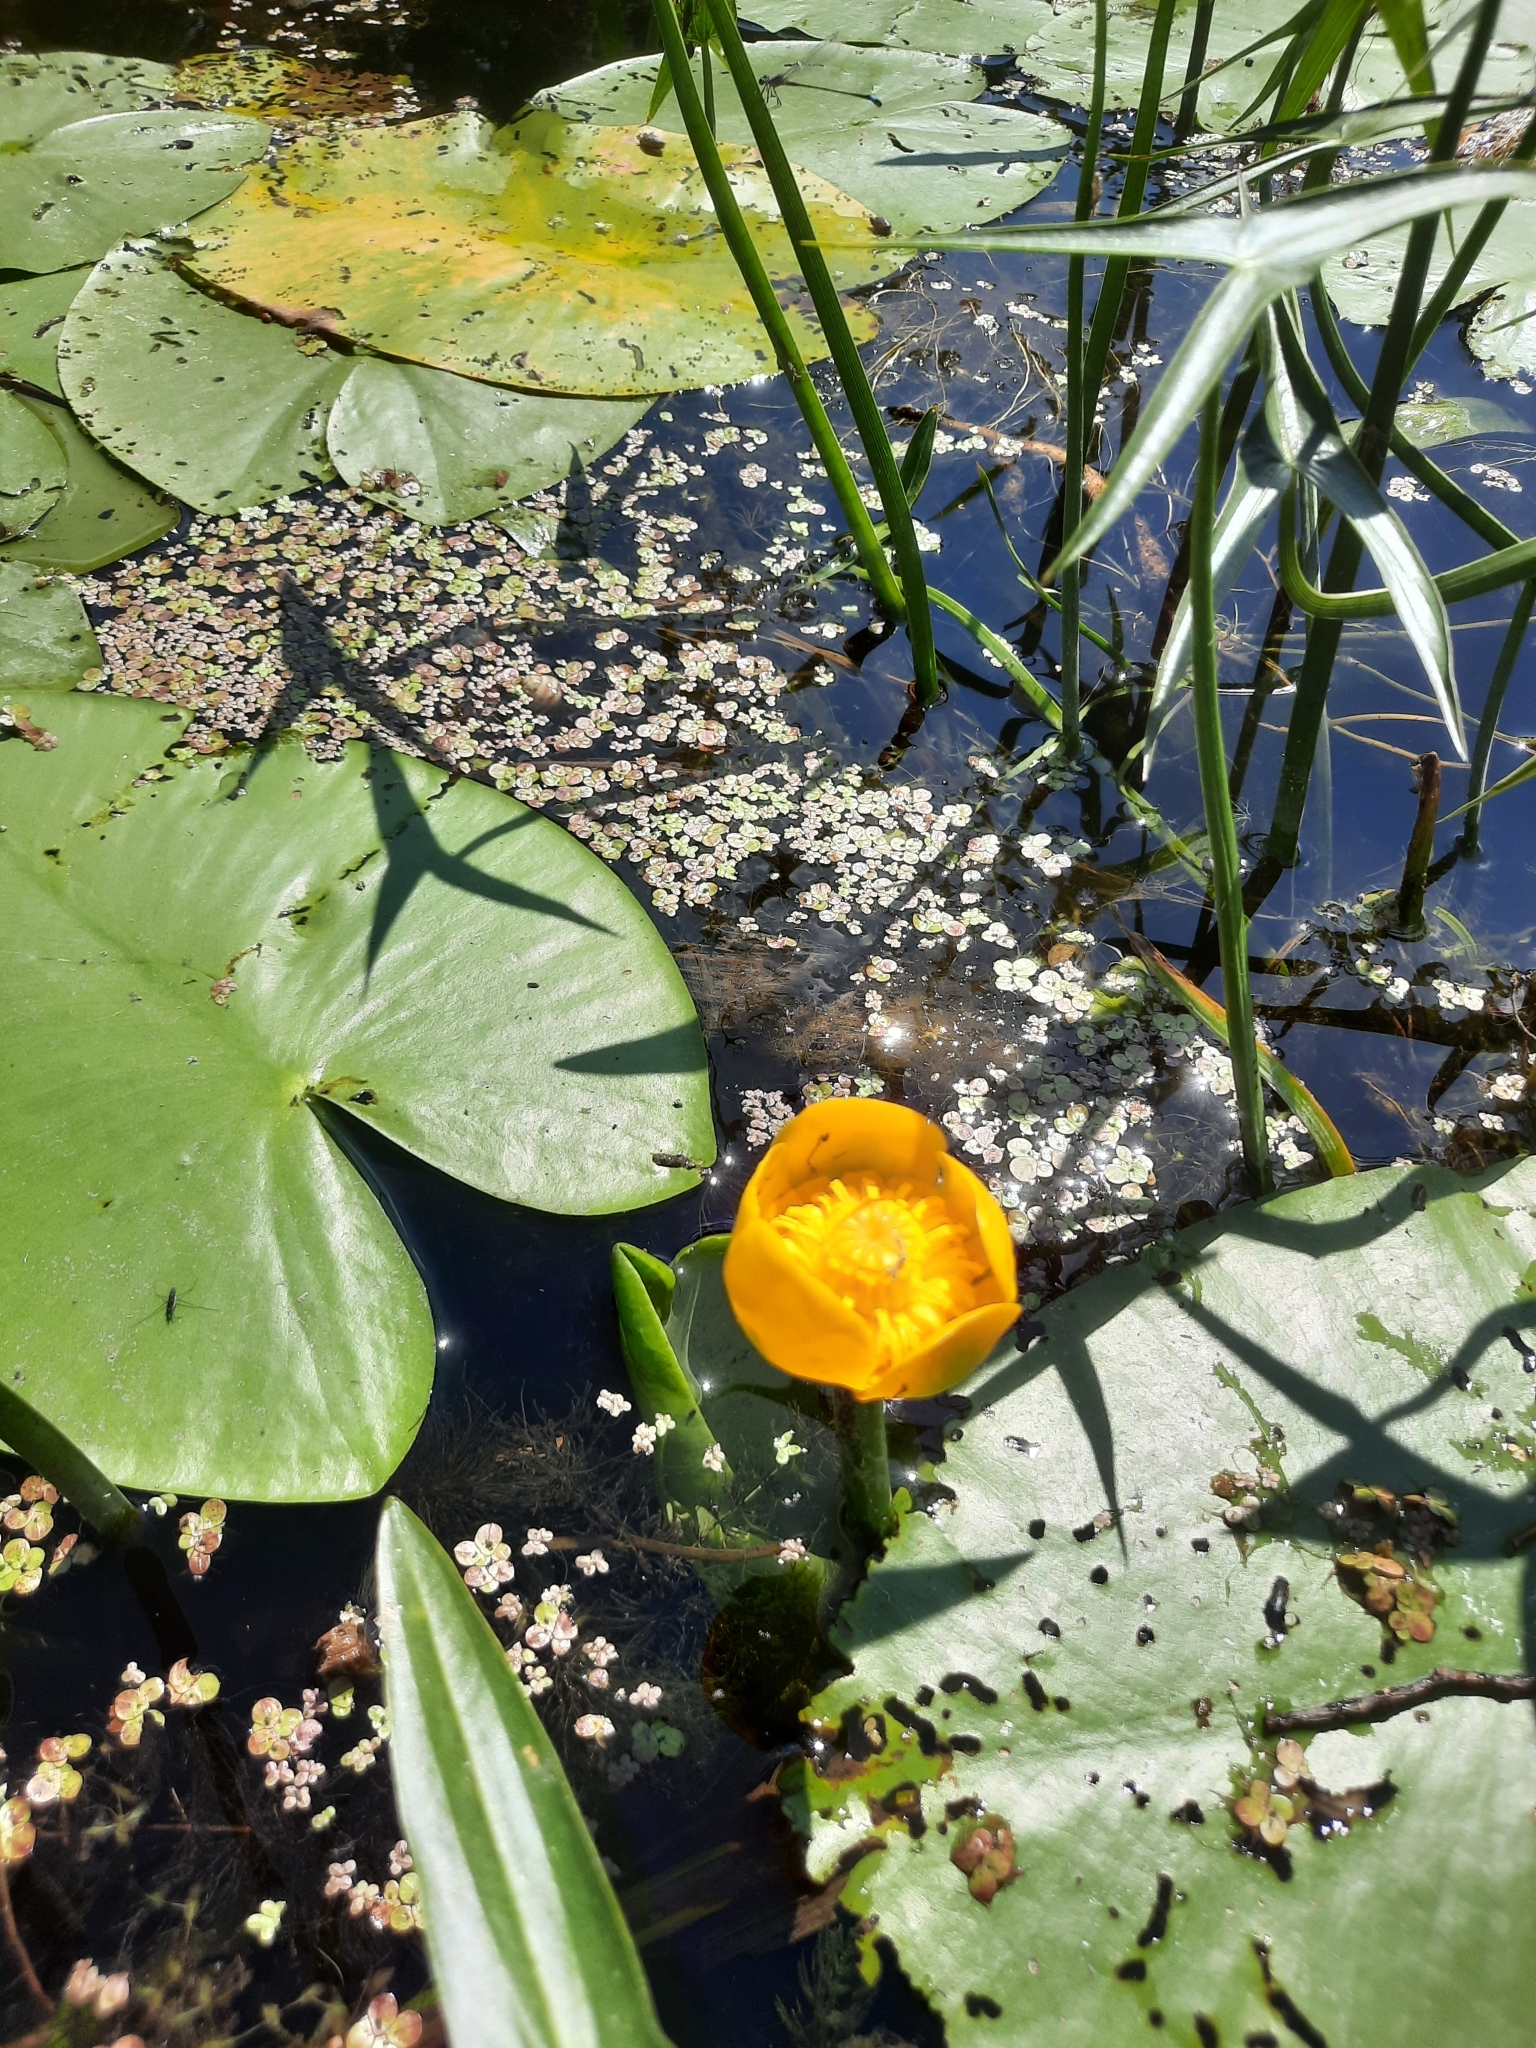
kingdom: Plantae
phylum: Tracheophyta
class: Magnoliopsida
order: Nymphaeales
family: Nymphaeaceae
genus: Nuphar
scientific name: Nuphar lutea
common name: Yellow water-lily
